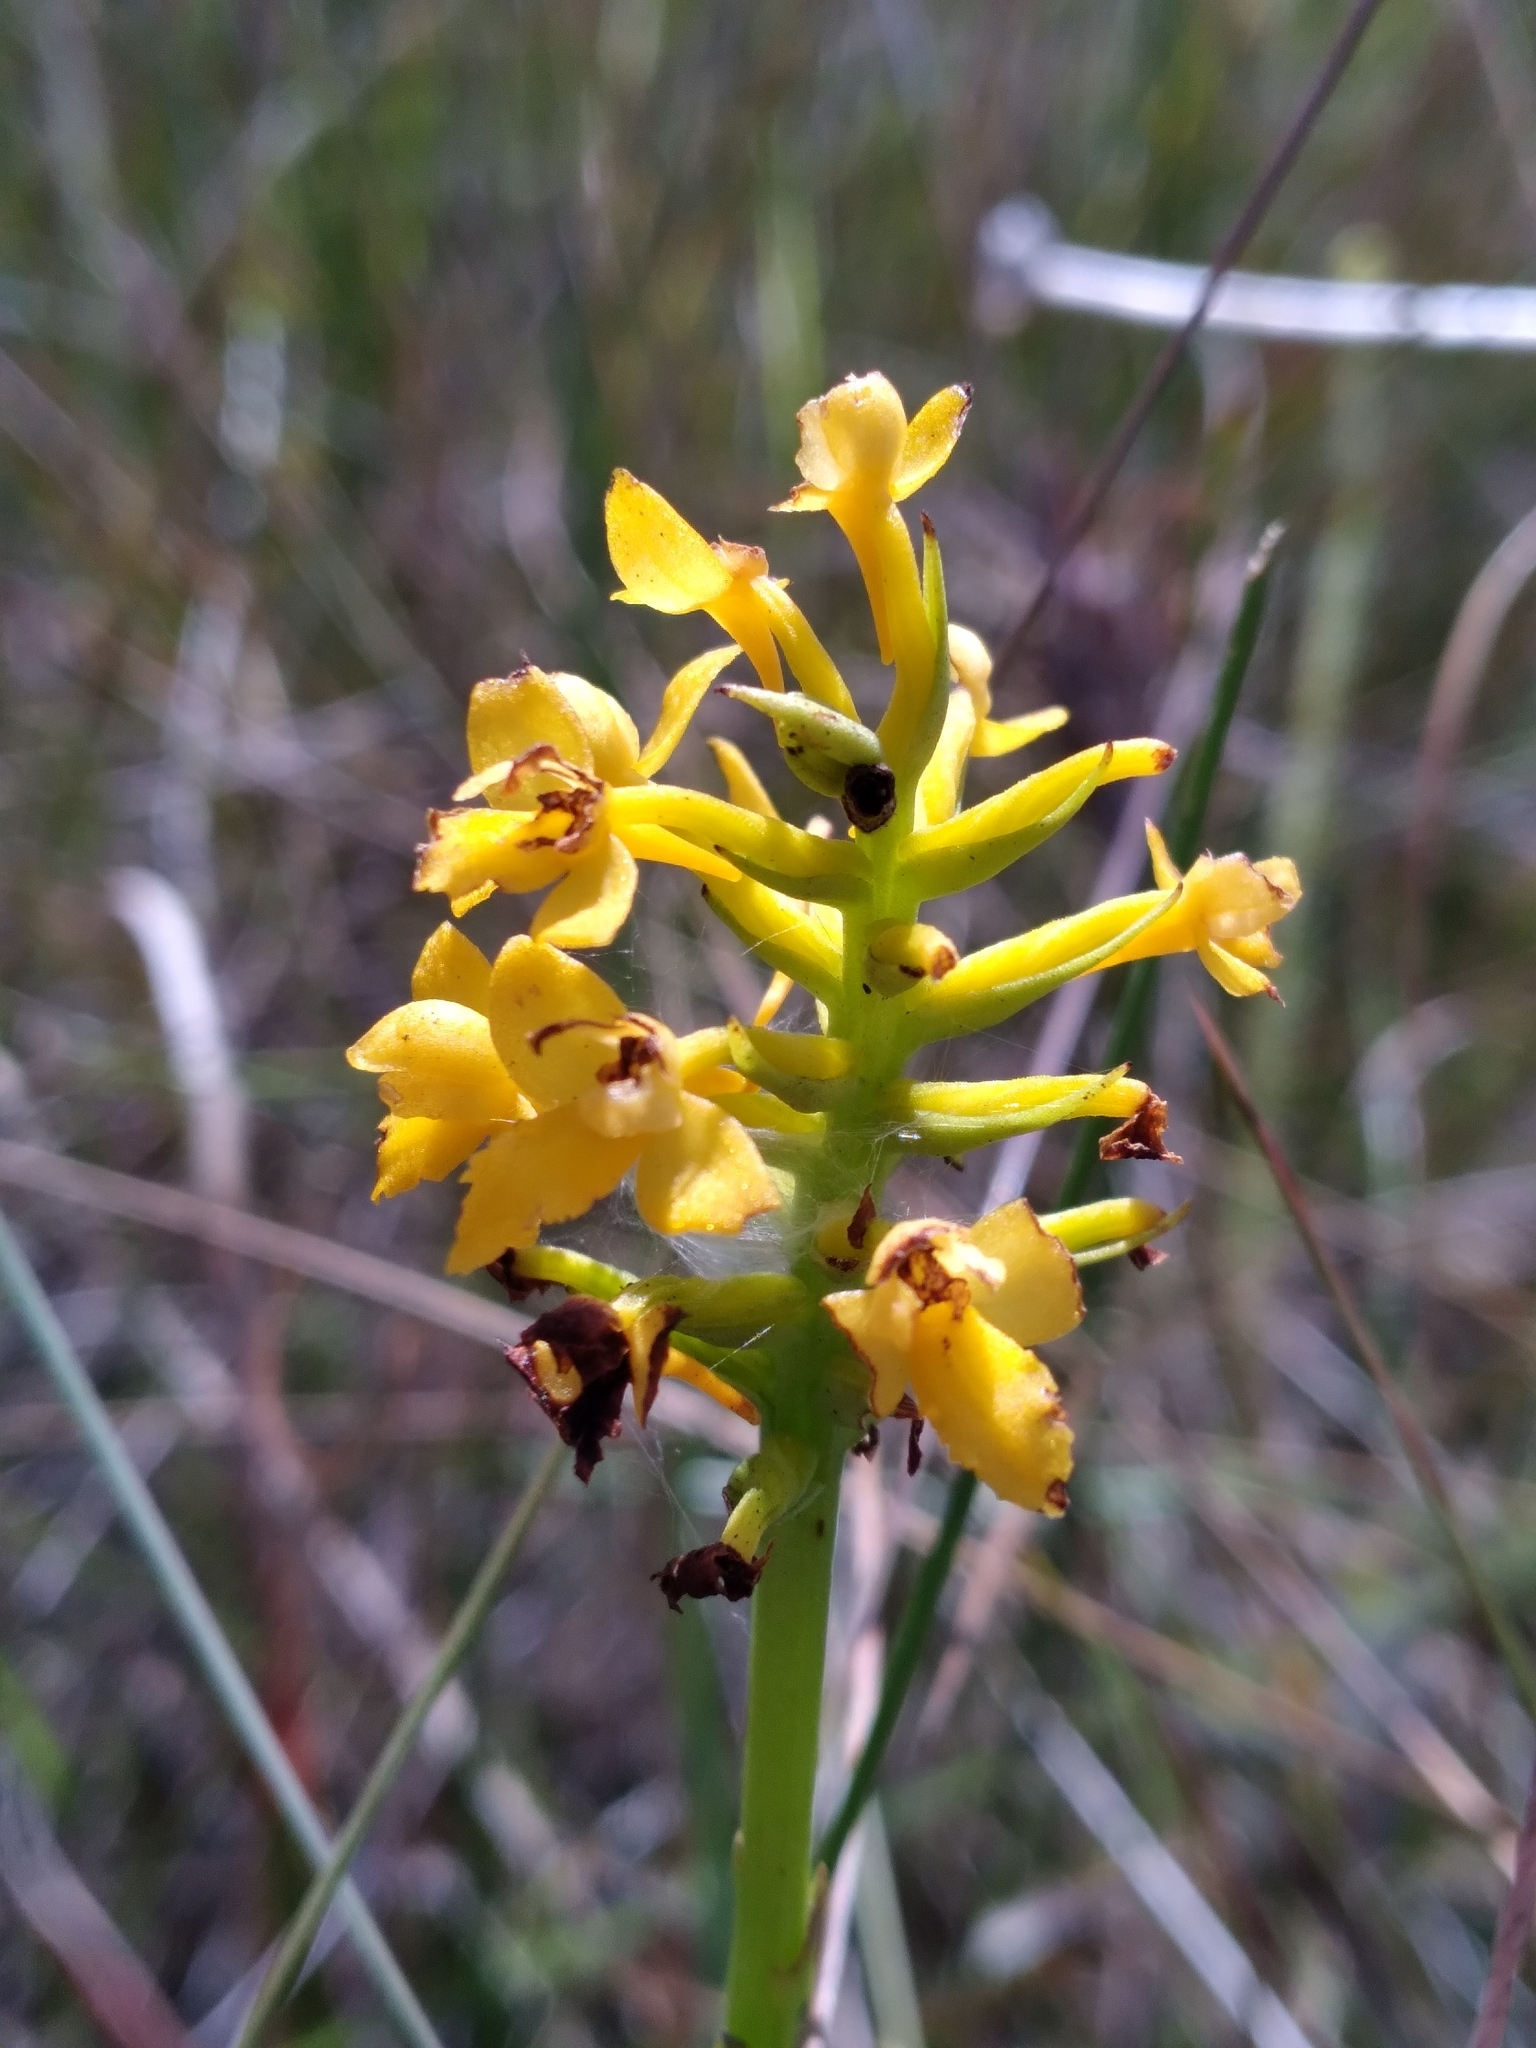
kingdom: Plantae
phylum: Tracheophyta
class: Liliopsida
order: Asparagales
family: Orchidaceae
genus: Platanthera
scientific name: Platanthera integra
